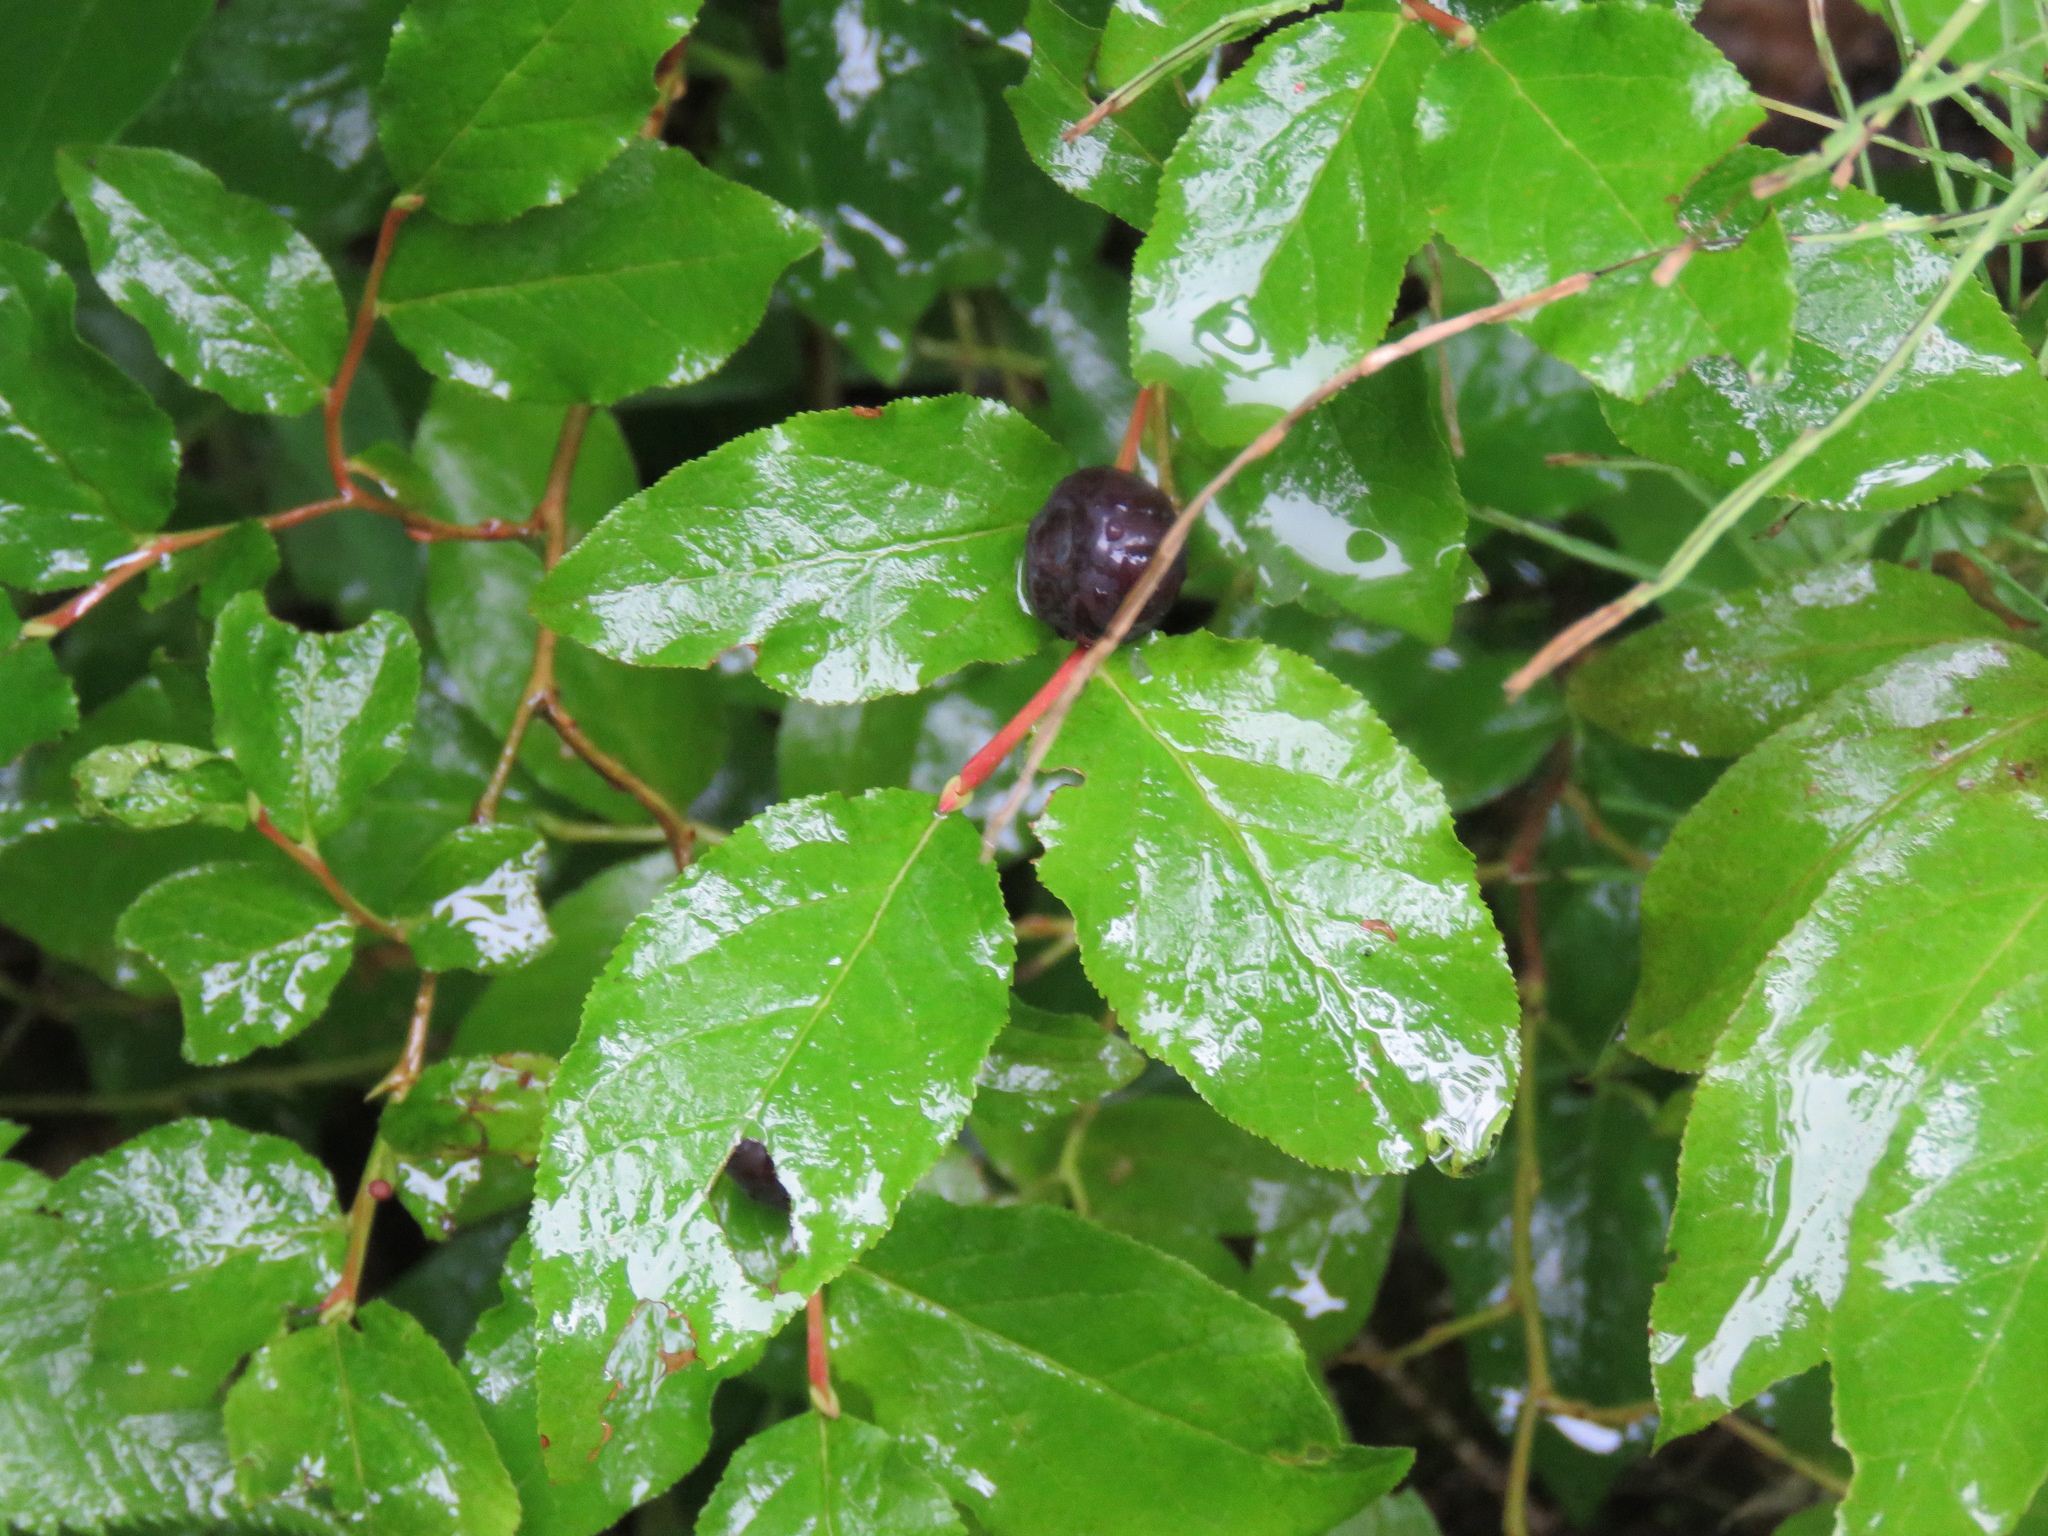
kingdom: Plantae
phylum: Tracheophyta
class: Magnoliopsida
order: Ericales
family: Ericaceae
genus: Vaccinium
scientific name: Vaccinium membranaceum
